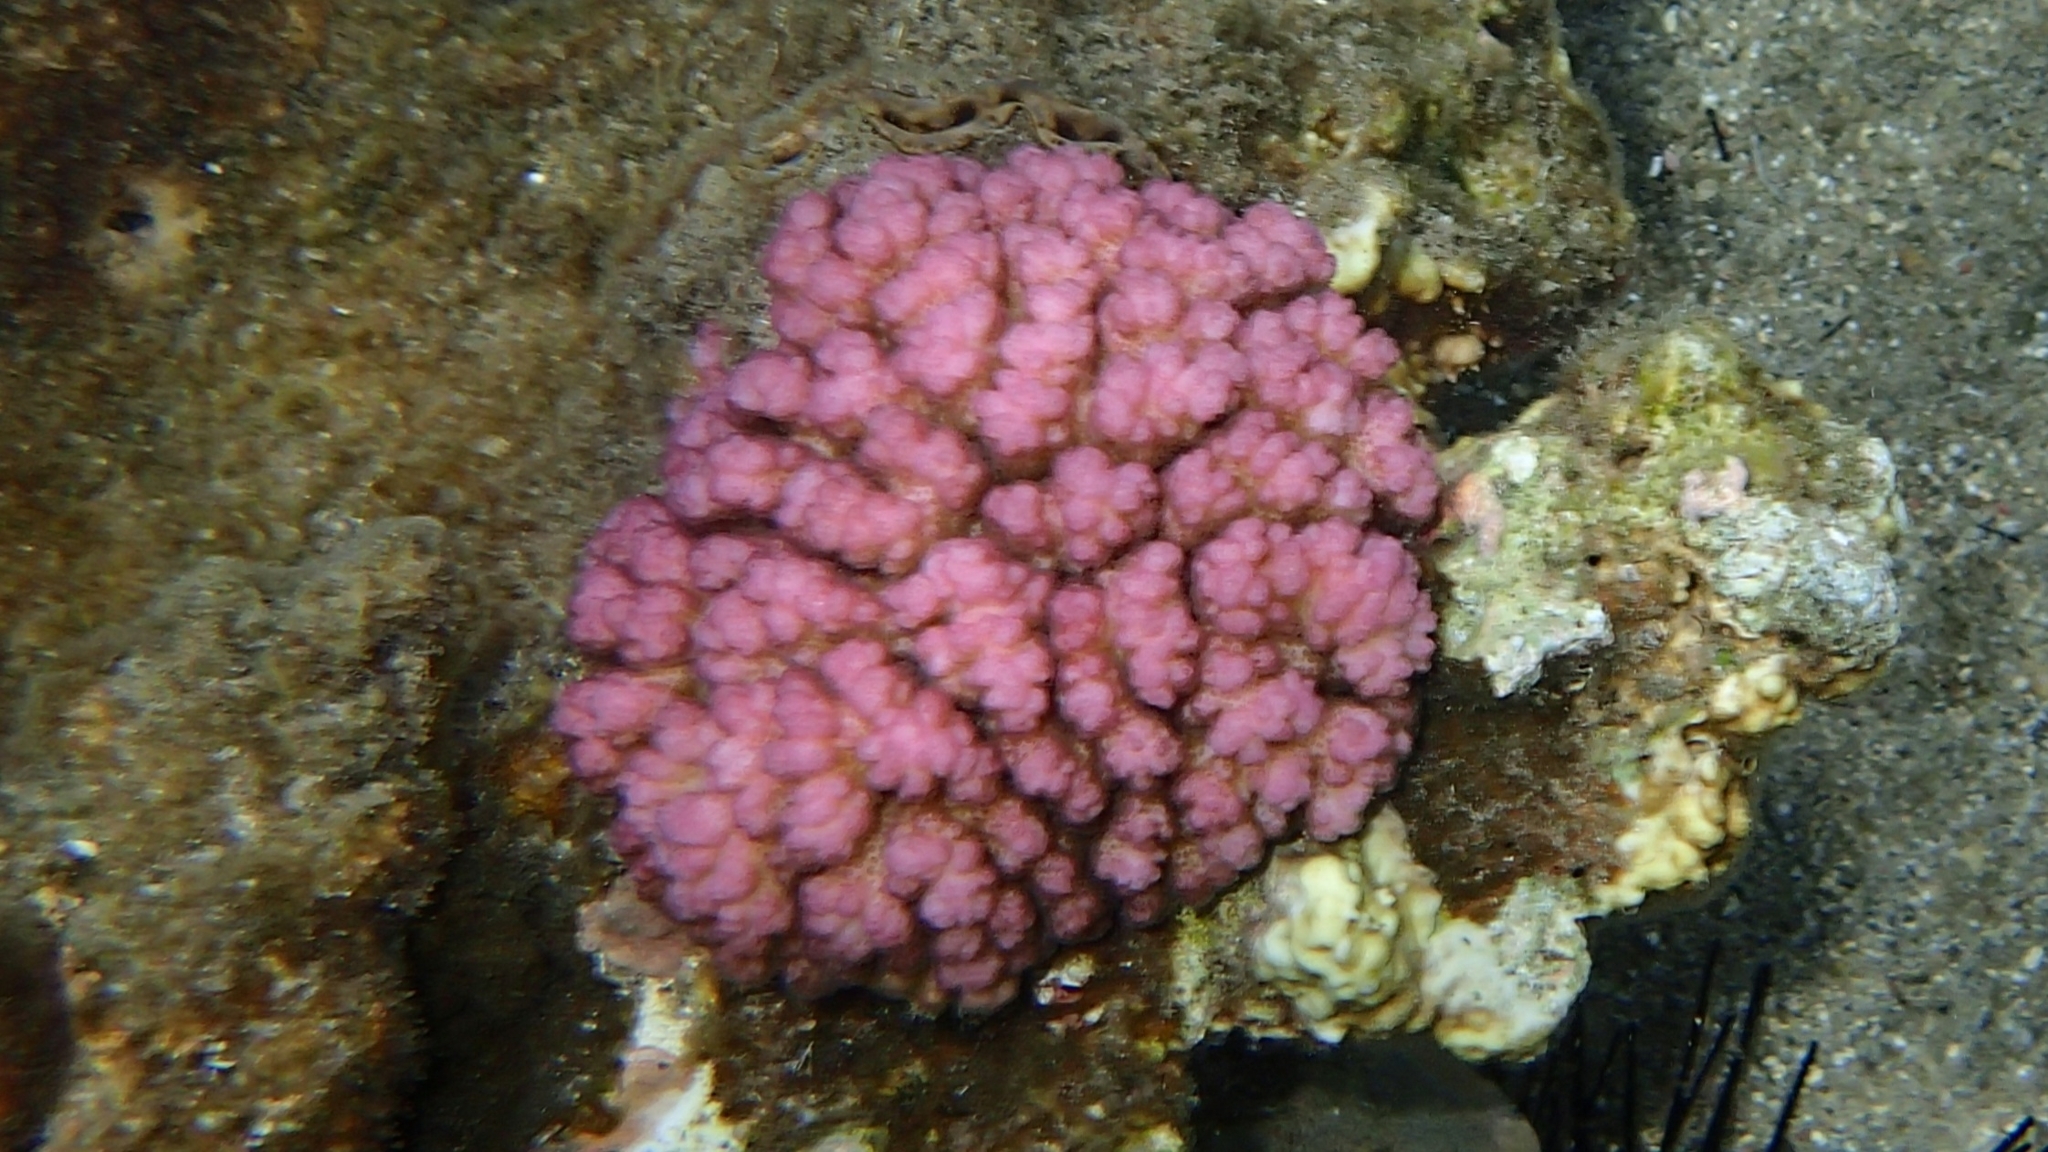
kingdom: Animalia
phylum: Cnidaria
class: Anthozoa
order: Scleractinia
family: Pocilloporidae
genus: Pocillopora
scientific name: Pocillopora verrucosa
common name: Cauliflower coral
